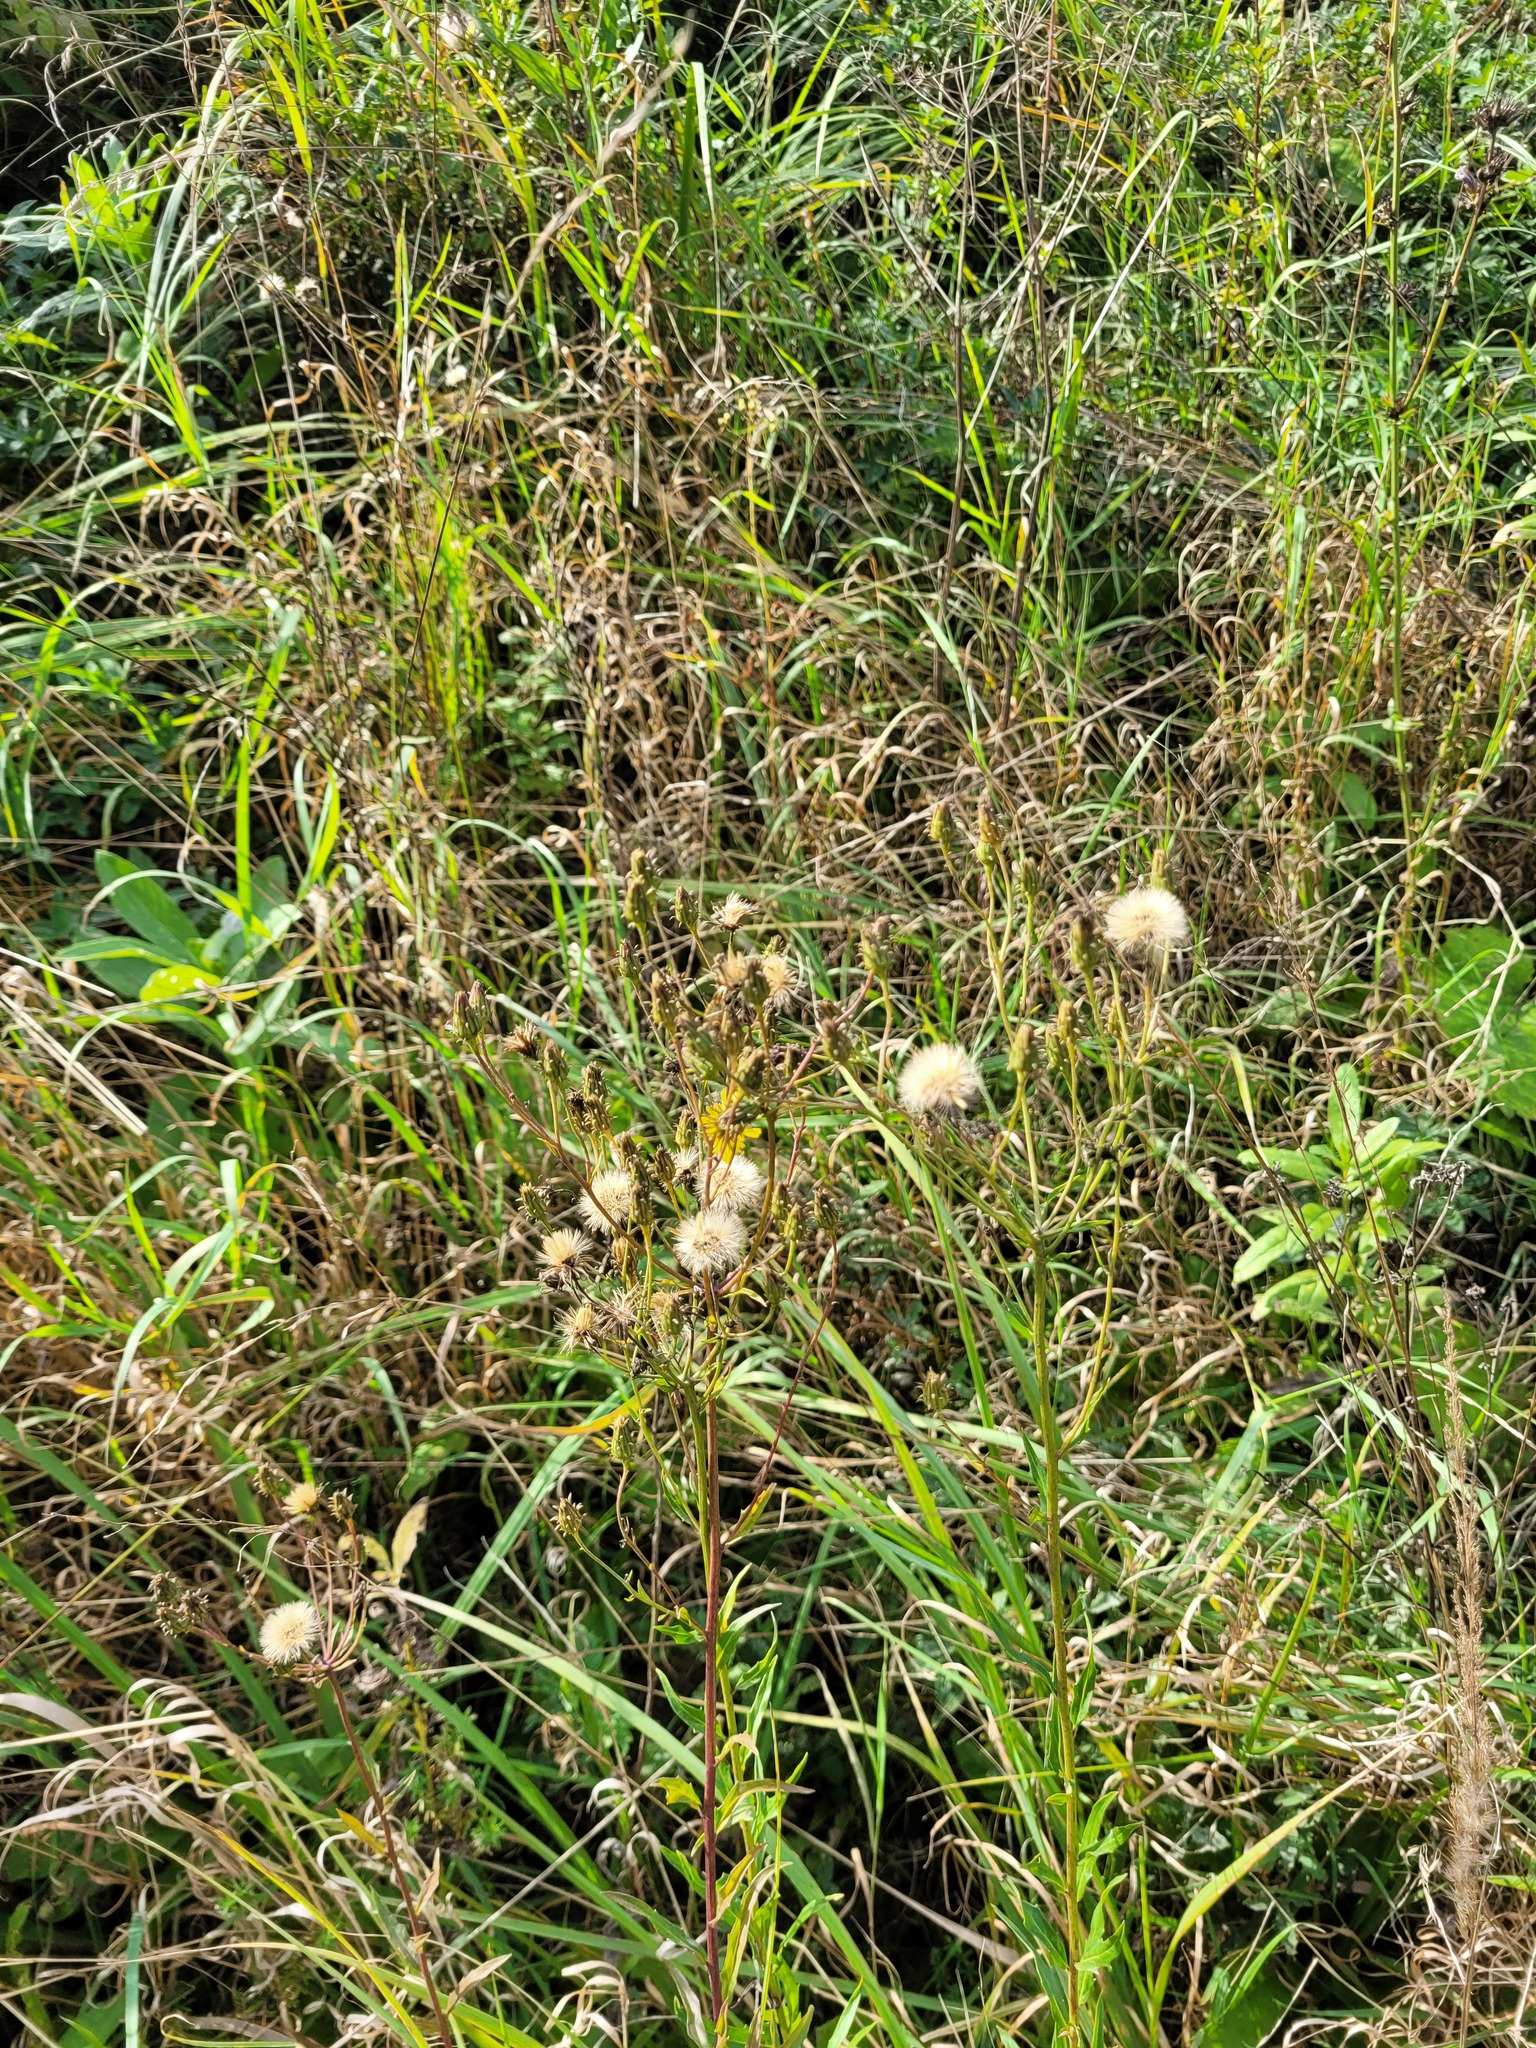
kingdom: Plantae
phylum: Tracheophyta
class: Magnoliopsida
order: Asterales
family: Asteraceae
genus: Hieracium
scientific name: Hieracium umbellatum
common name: Northern hawkweed
